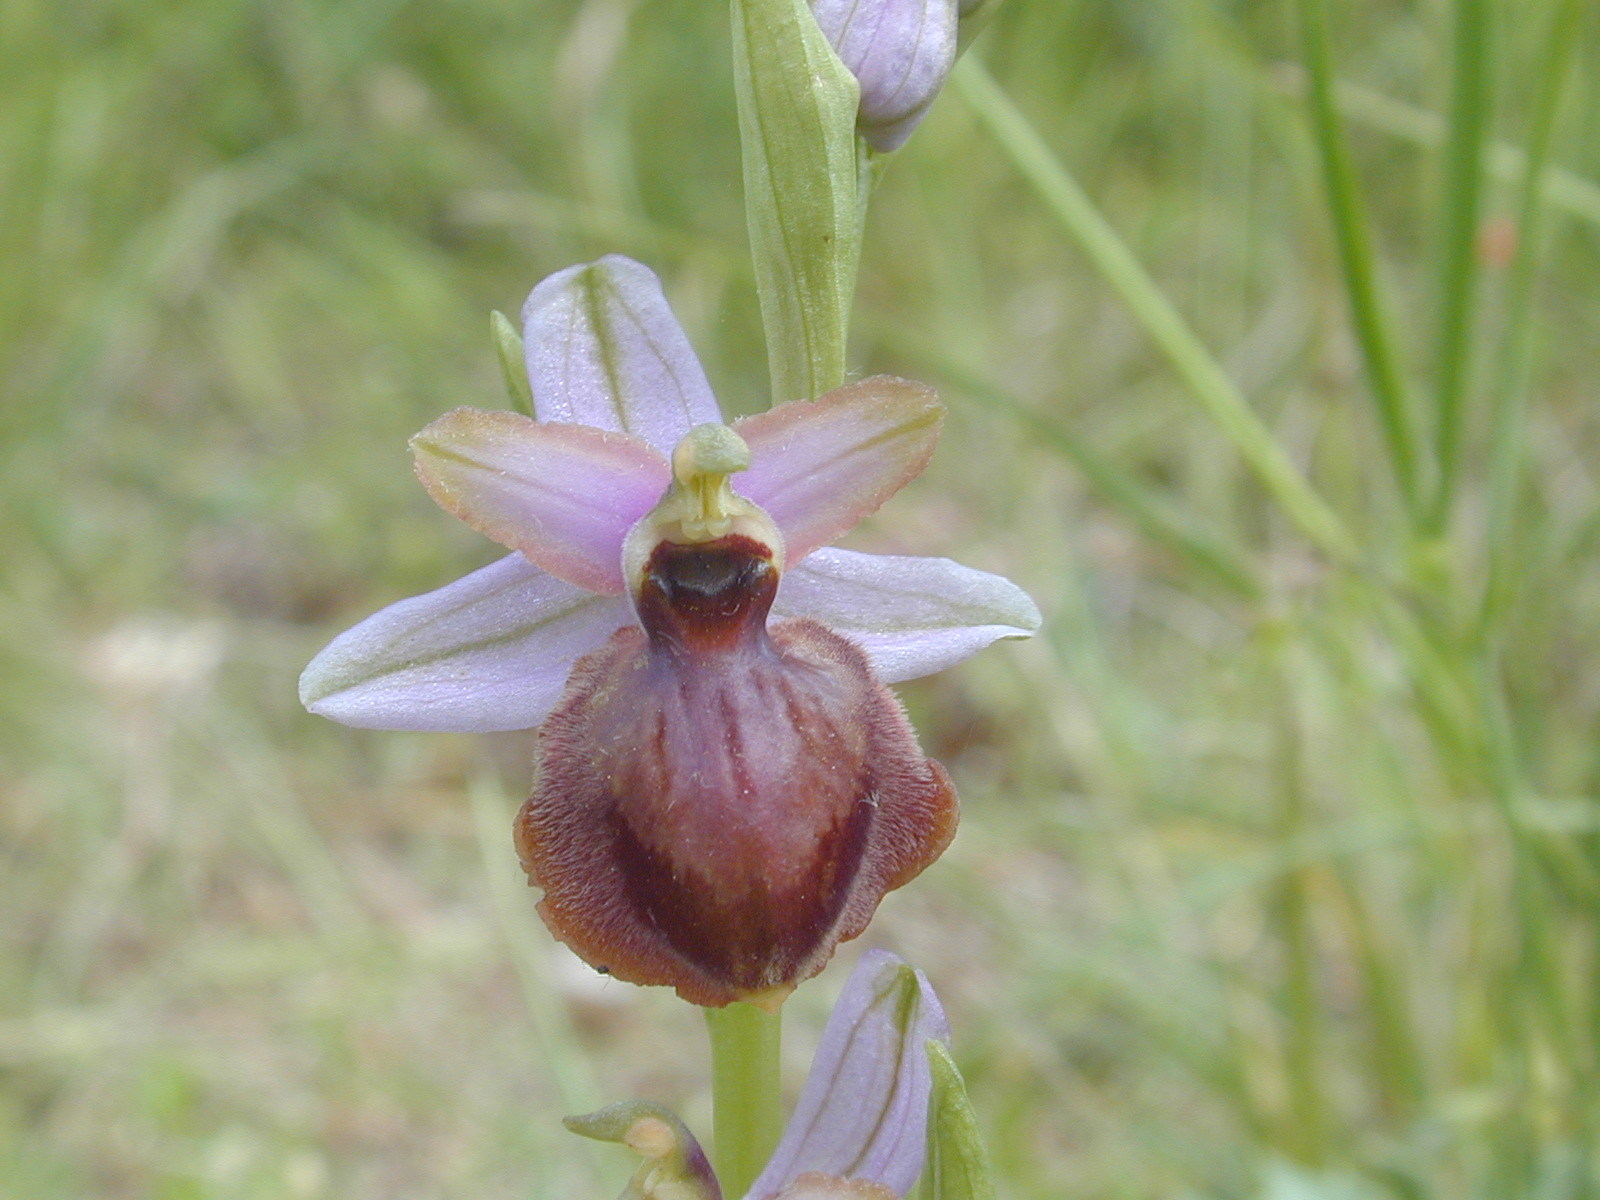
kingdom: Plantae
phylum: Tracheophyta
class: Liliopsida
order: Asparagales
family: Orchidaceae
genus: Ophrys
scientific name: Ophrys sphegodes
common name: Early spider-orchid
